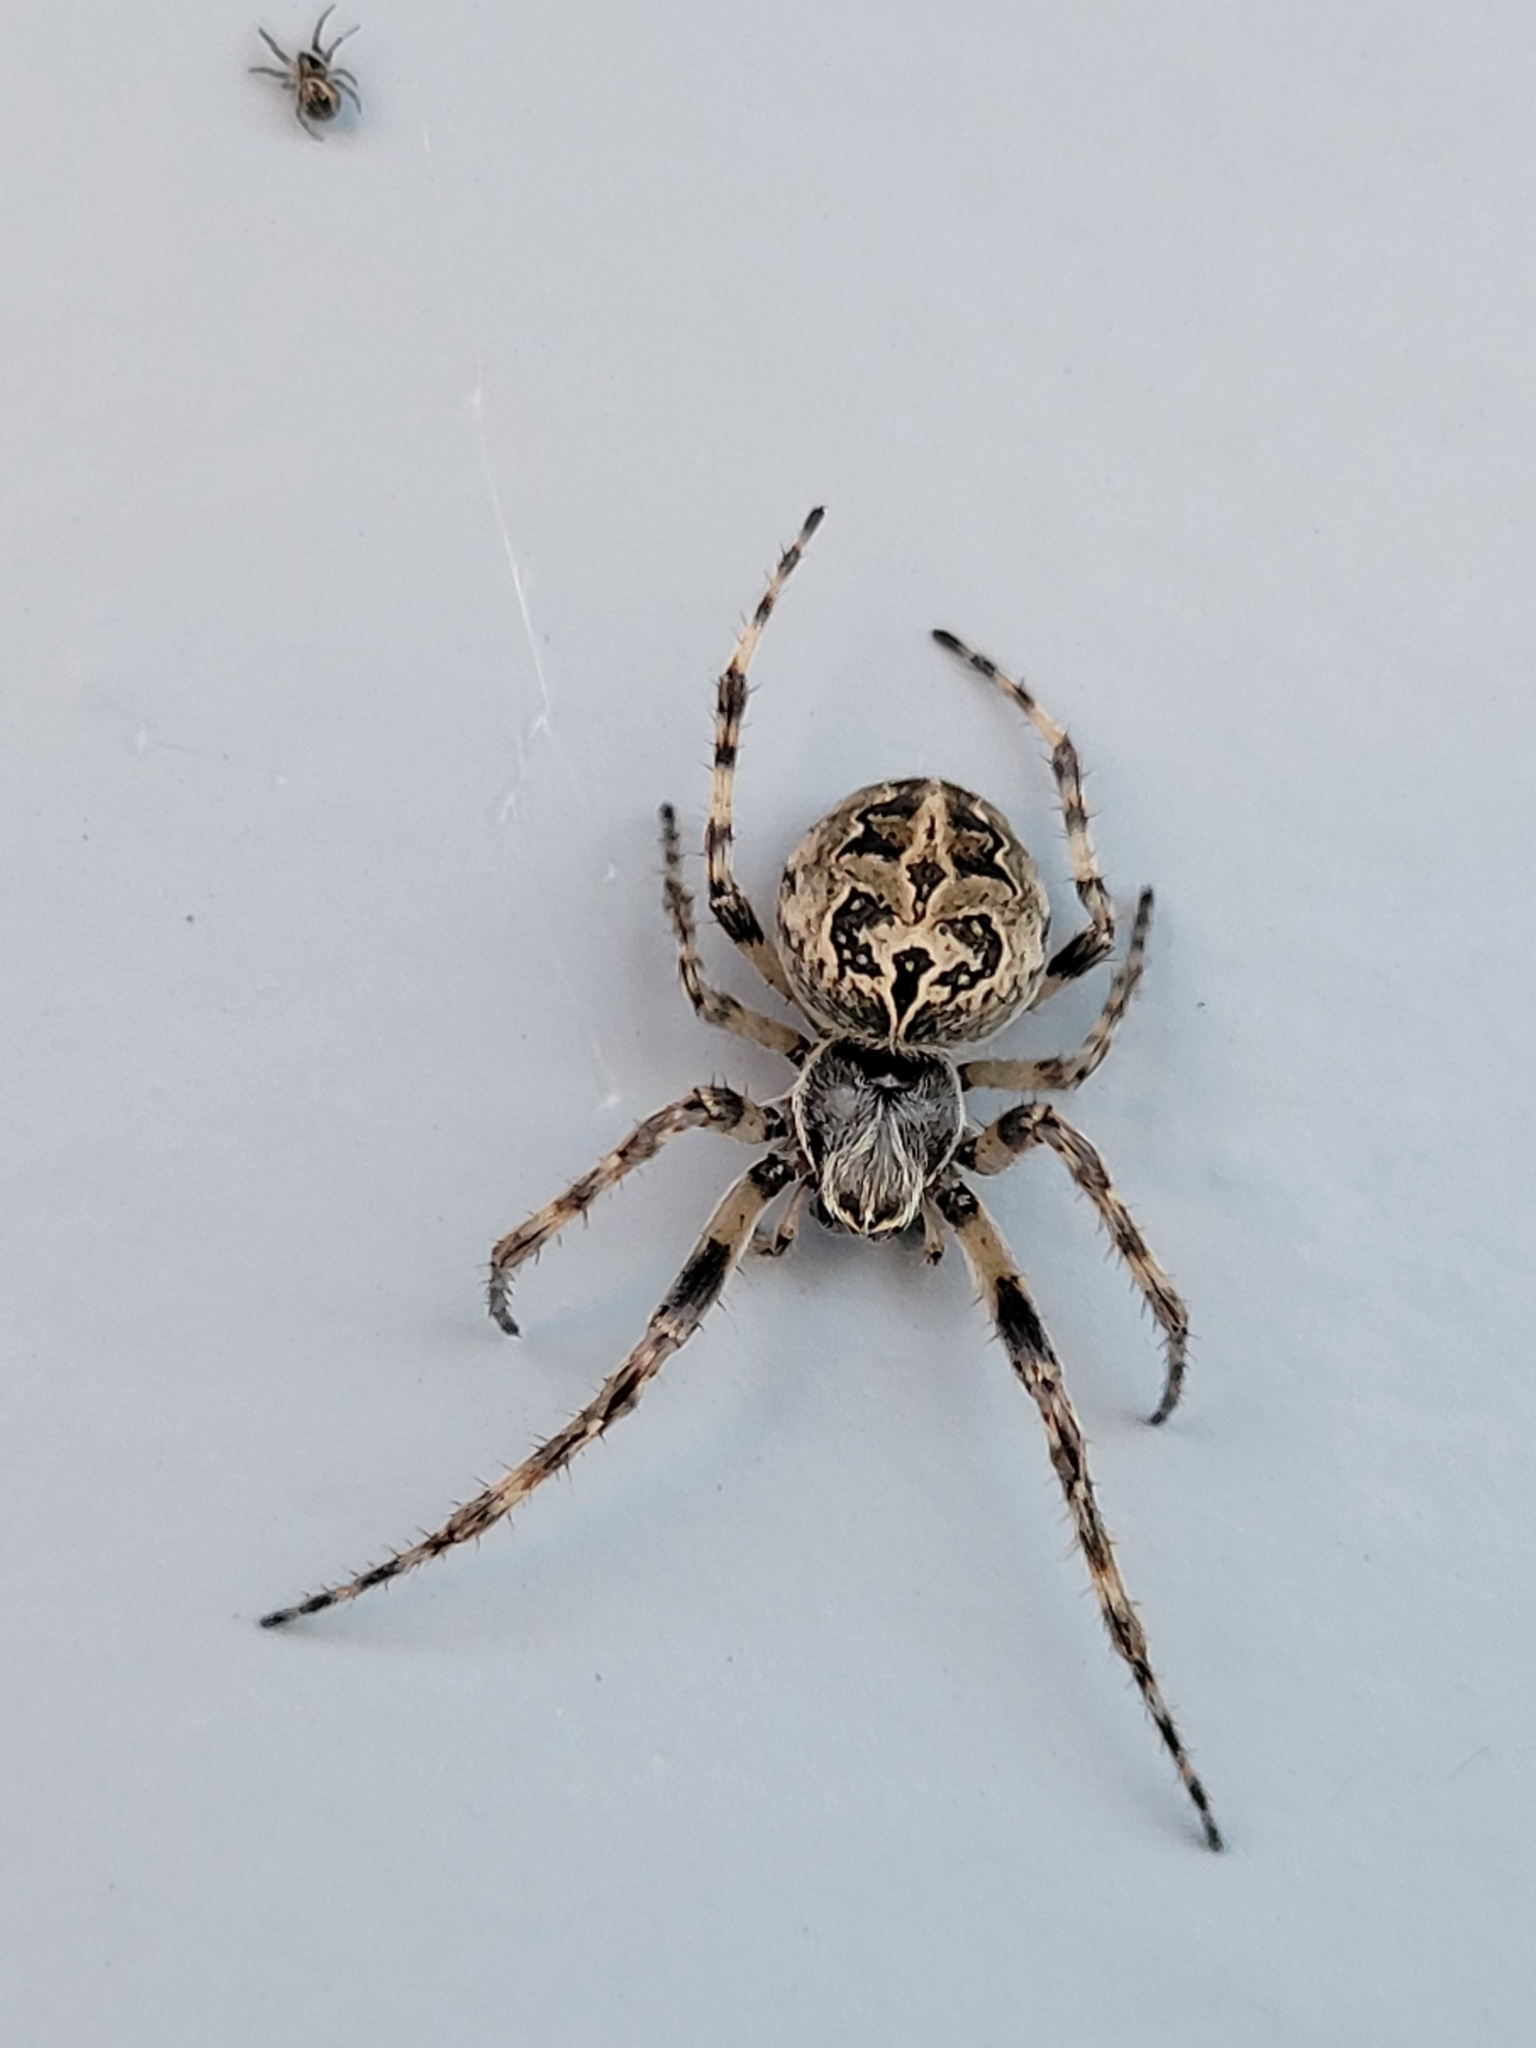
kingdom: Animalia
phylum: Arthropoda
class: Arachnida
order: Araneae
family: Araneidae
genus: Larinioides
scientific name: Larinioides sclopetarius
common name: Bridge orbweaver
